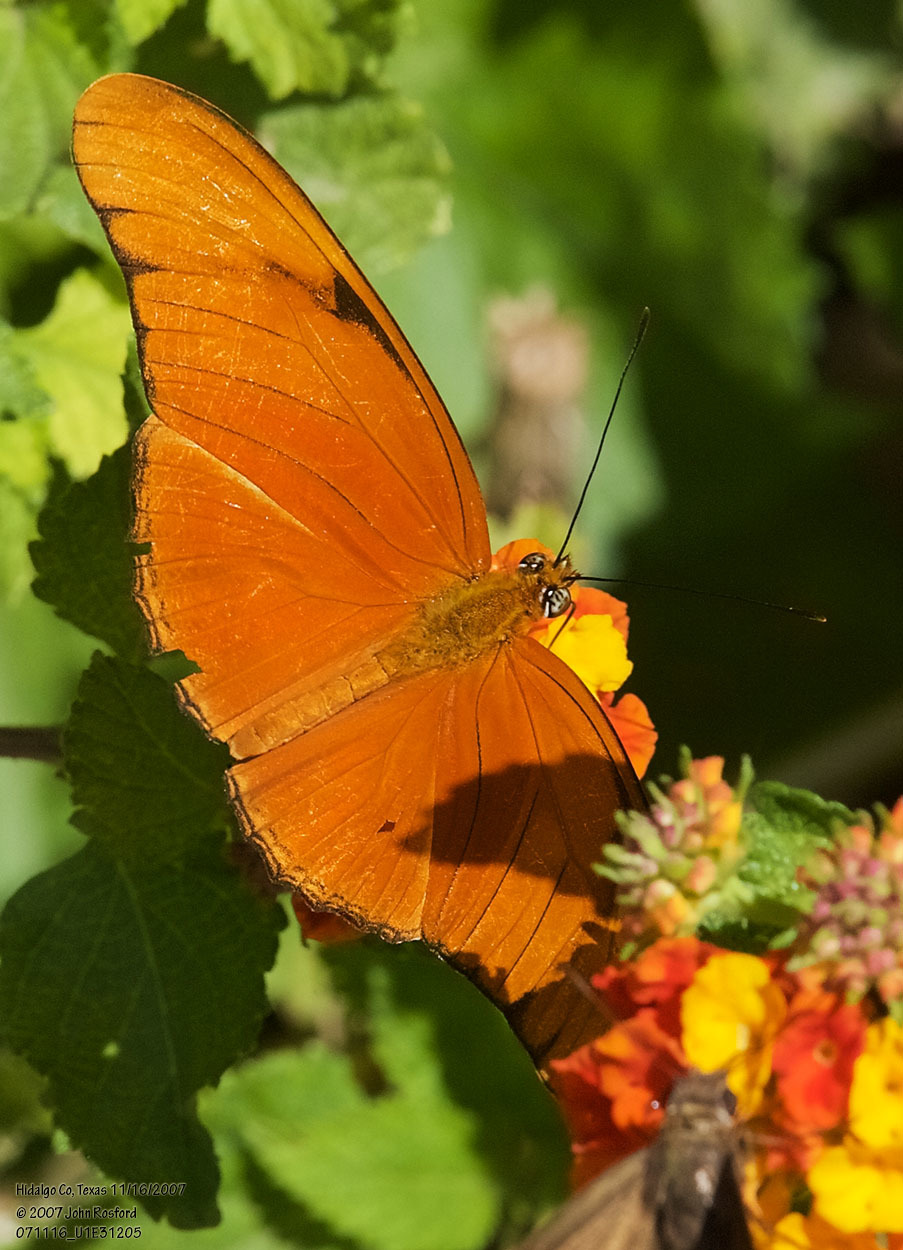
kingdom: Animalia
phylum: Arthropoda
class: Insecta
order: Lepidoptera
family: Nymphalidae
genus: Dryas
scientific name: Dryas iulia
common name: Flambeau
